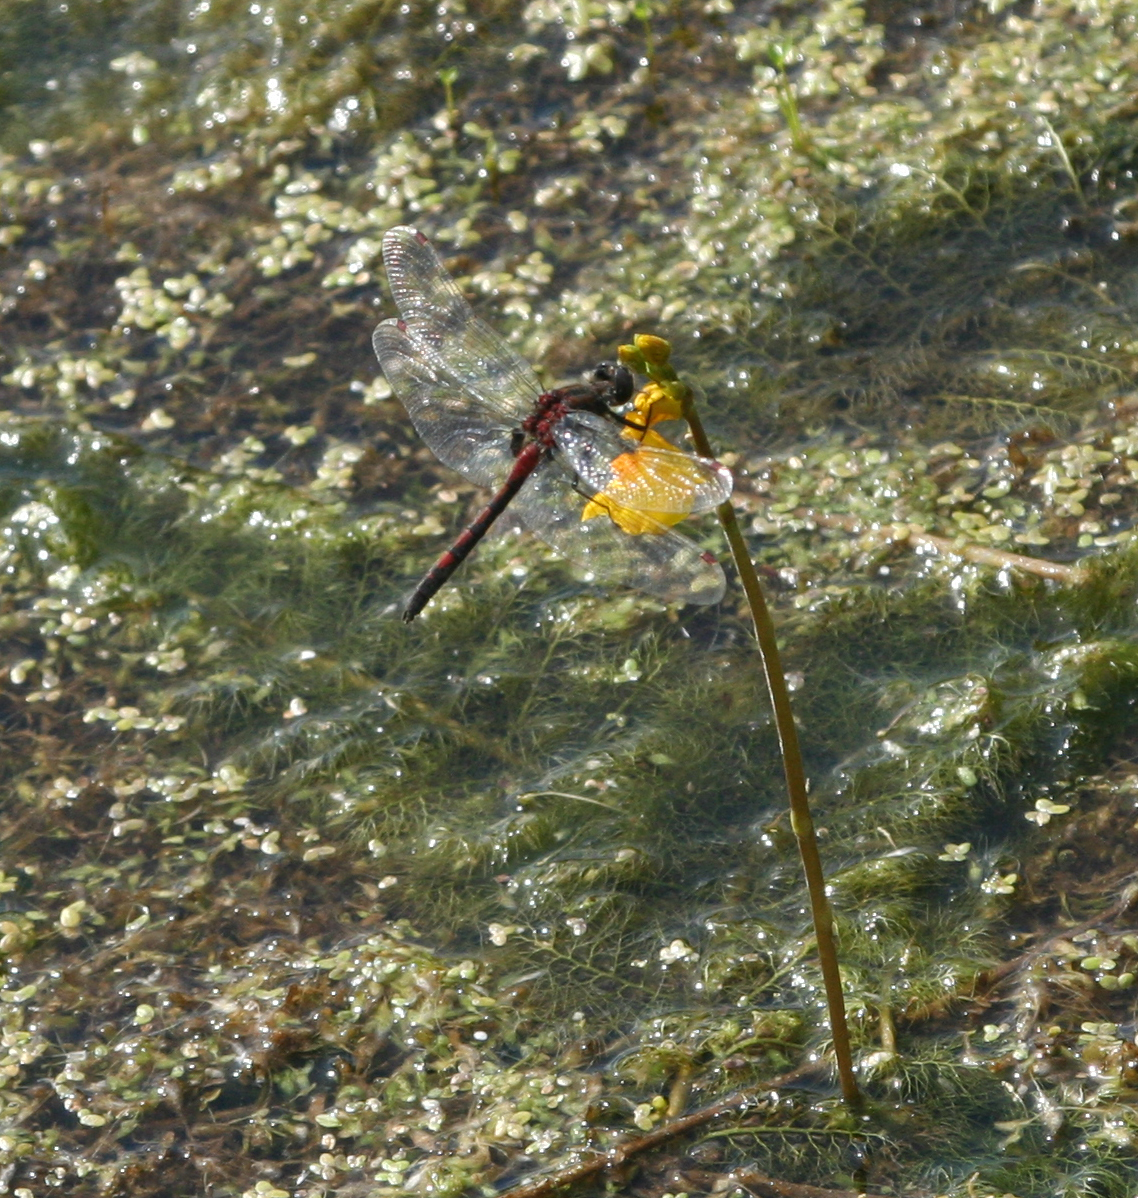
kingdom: Animalia
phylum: Arthropoda
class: Insecta
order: Odonata
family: Libellulidae
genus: Leucorrhinia
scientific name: Leucorrhinia rubicunda
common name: Ruby whiteface
